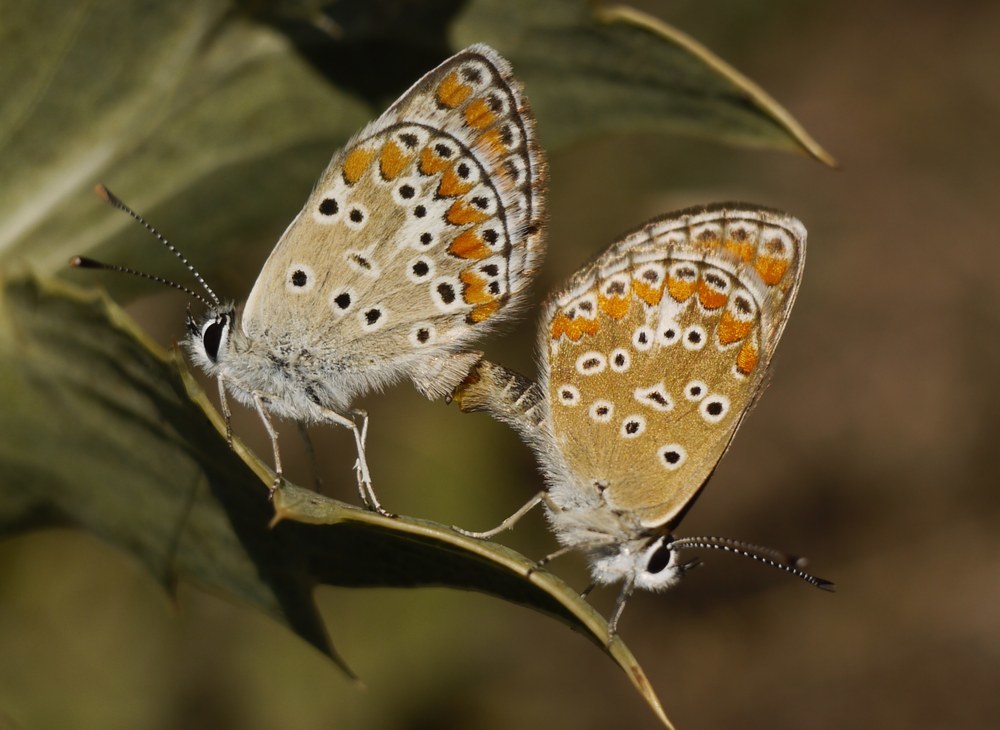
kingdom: Animalia
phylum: Arthropoda
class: Insecta
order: Lepidoptera
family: Lycaenidae
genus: Aricia
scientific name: Aricia agestis
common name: Brown argus
